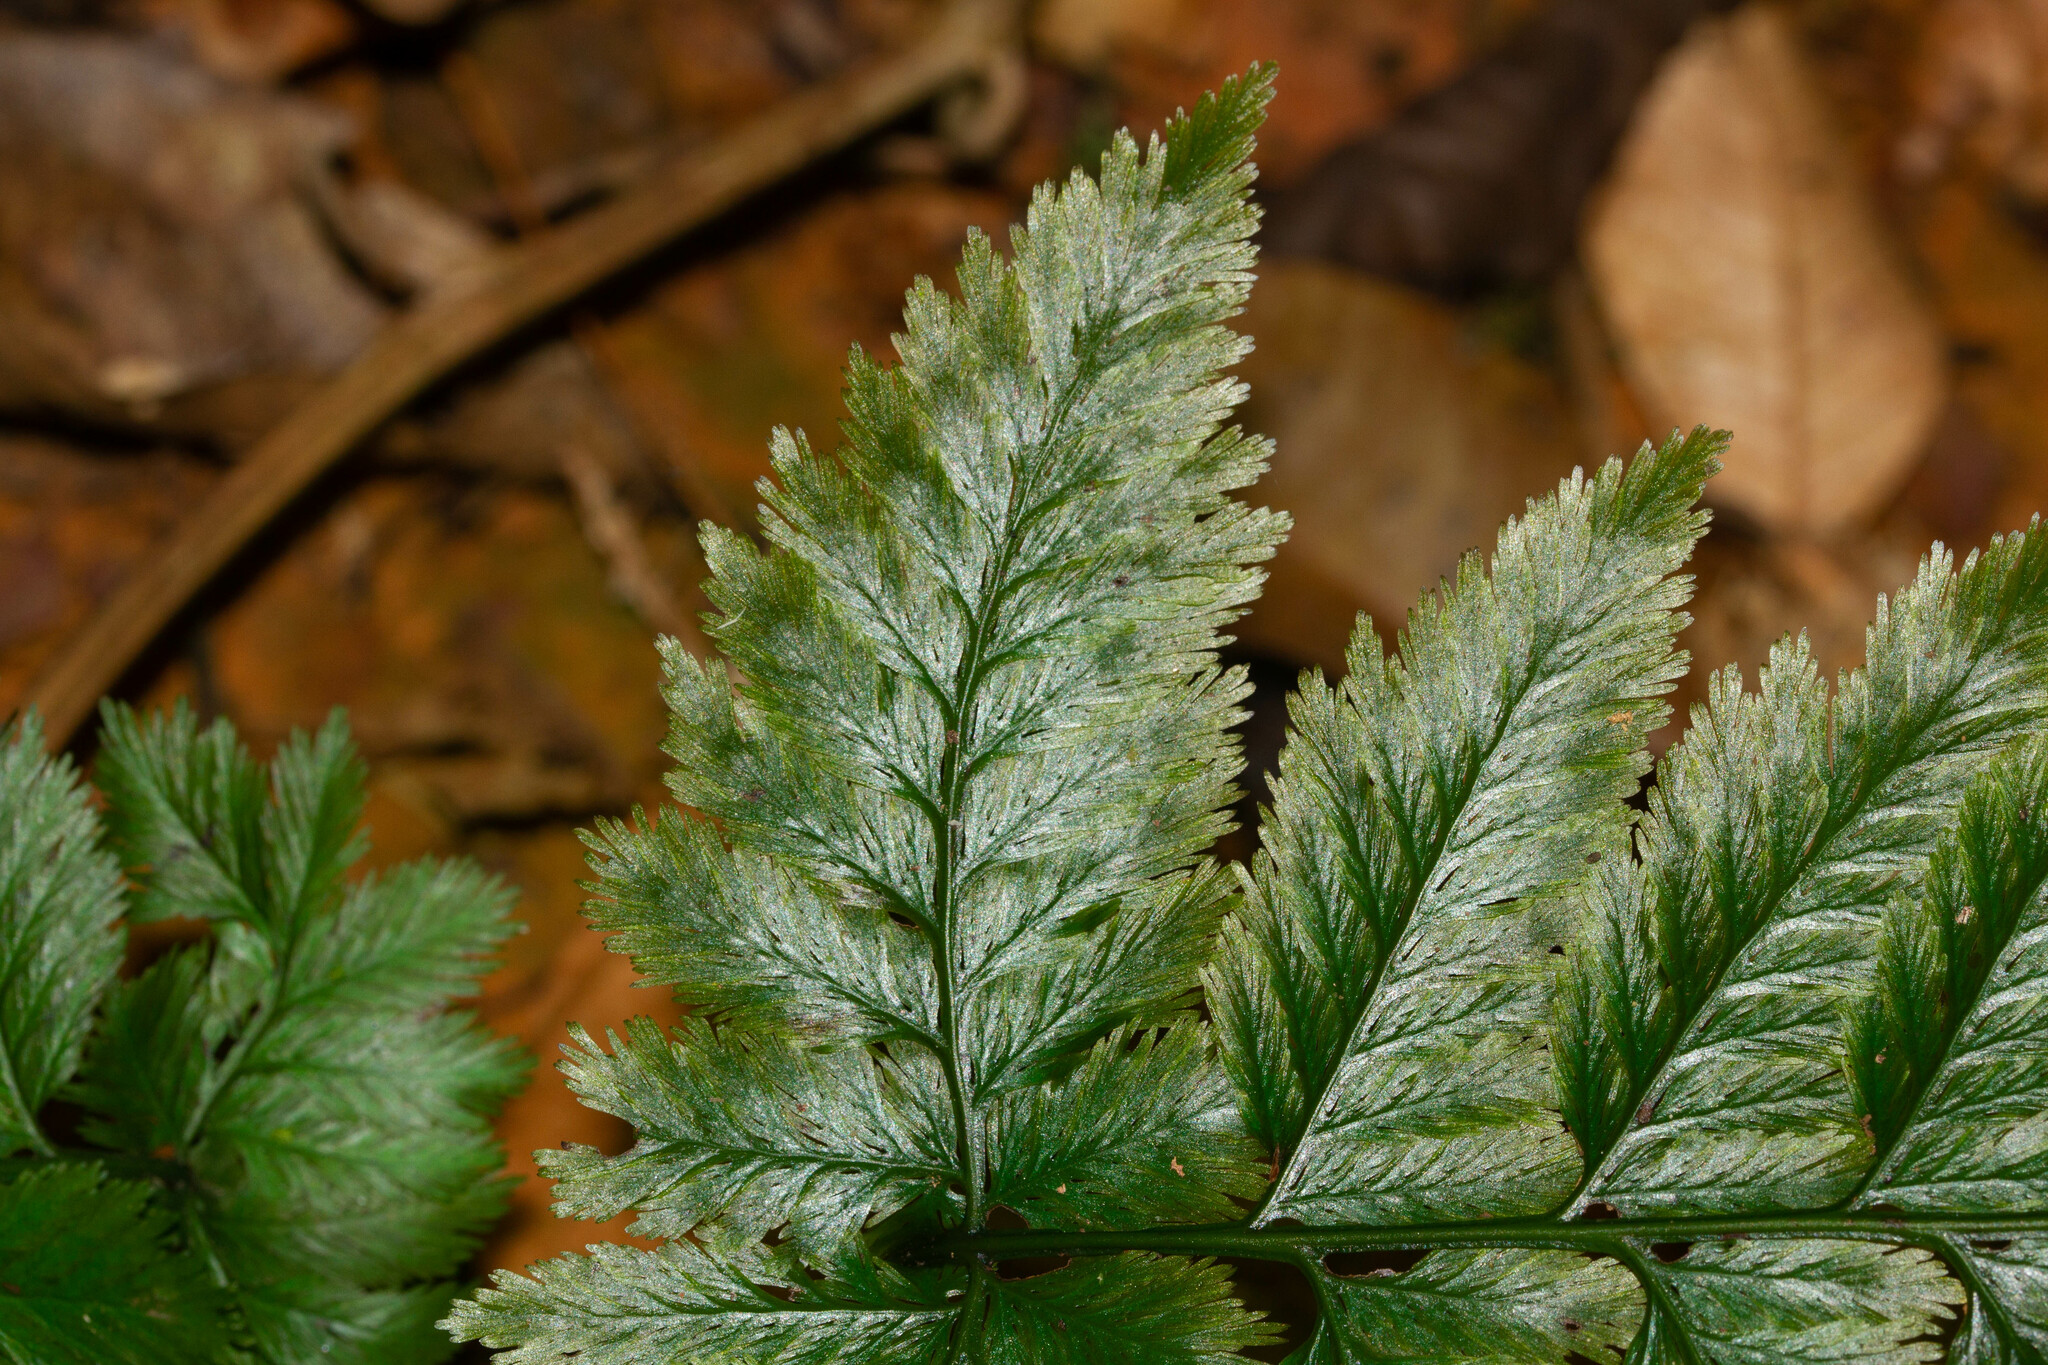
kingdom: Plantae
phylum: Tracheophyta
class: Polypodiopsida
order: Hymenophyllales
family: Hymenophyllaceae
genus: Trichomanes
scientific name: Trichomanes elegans
